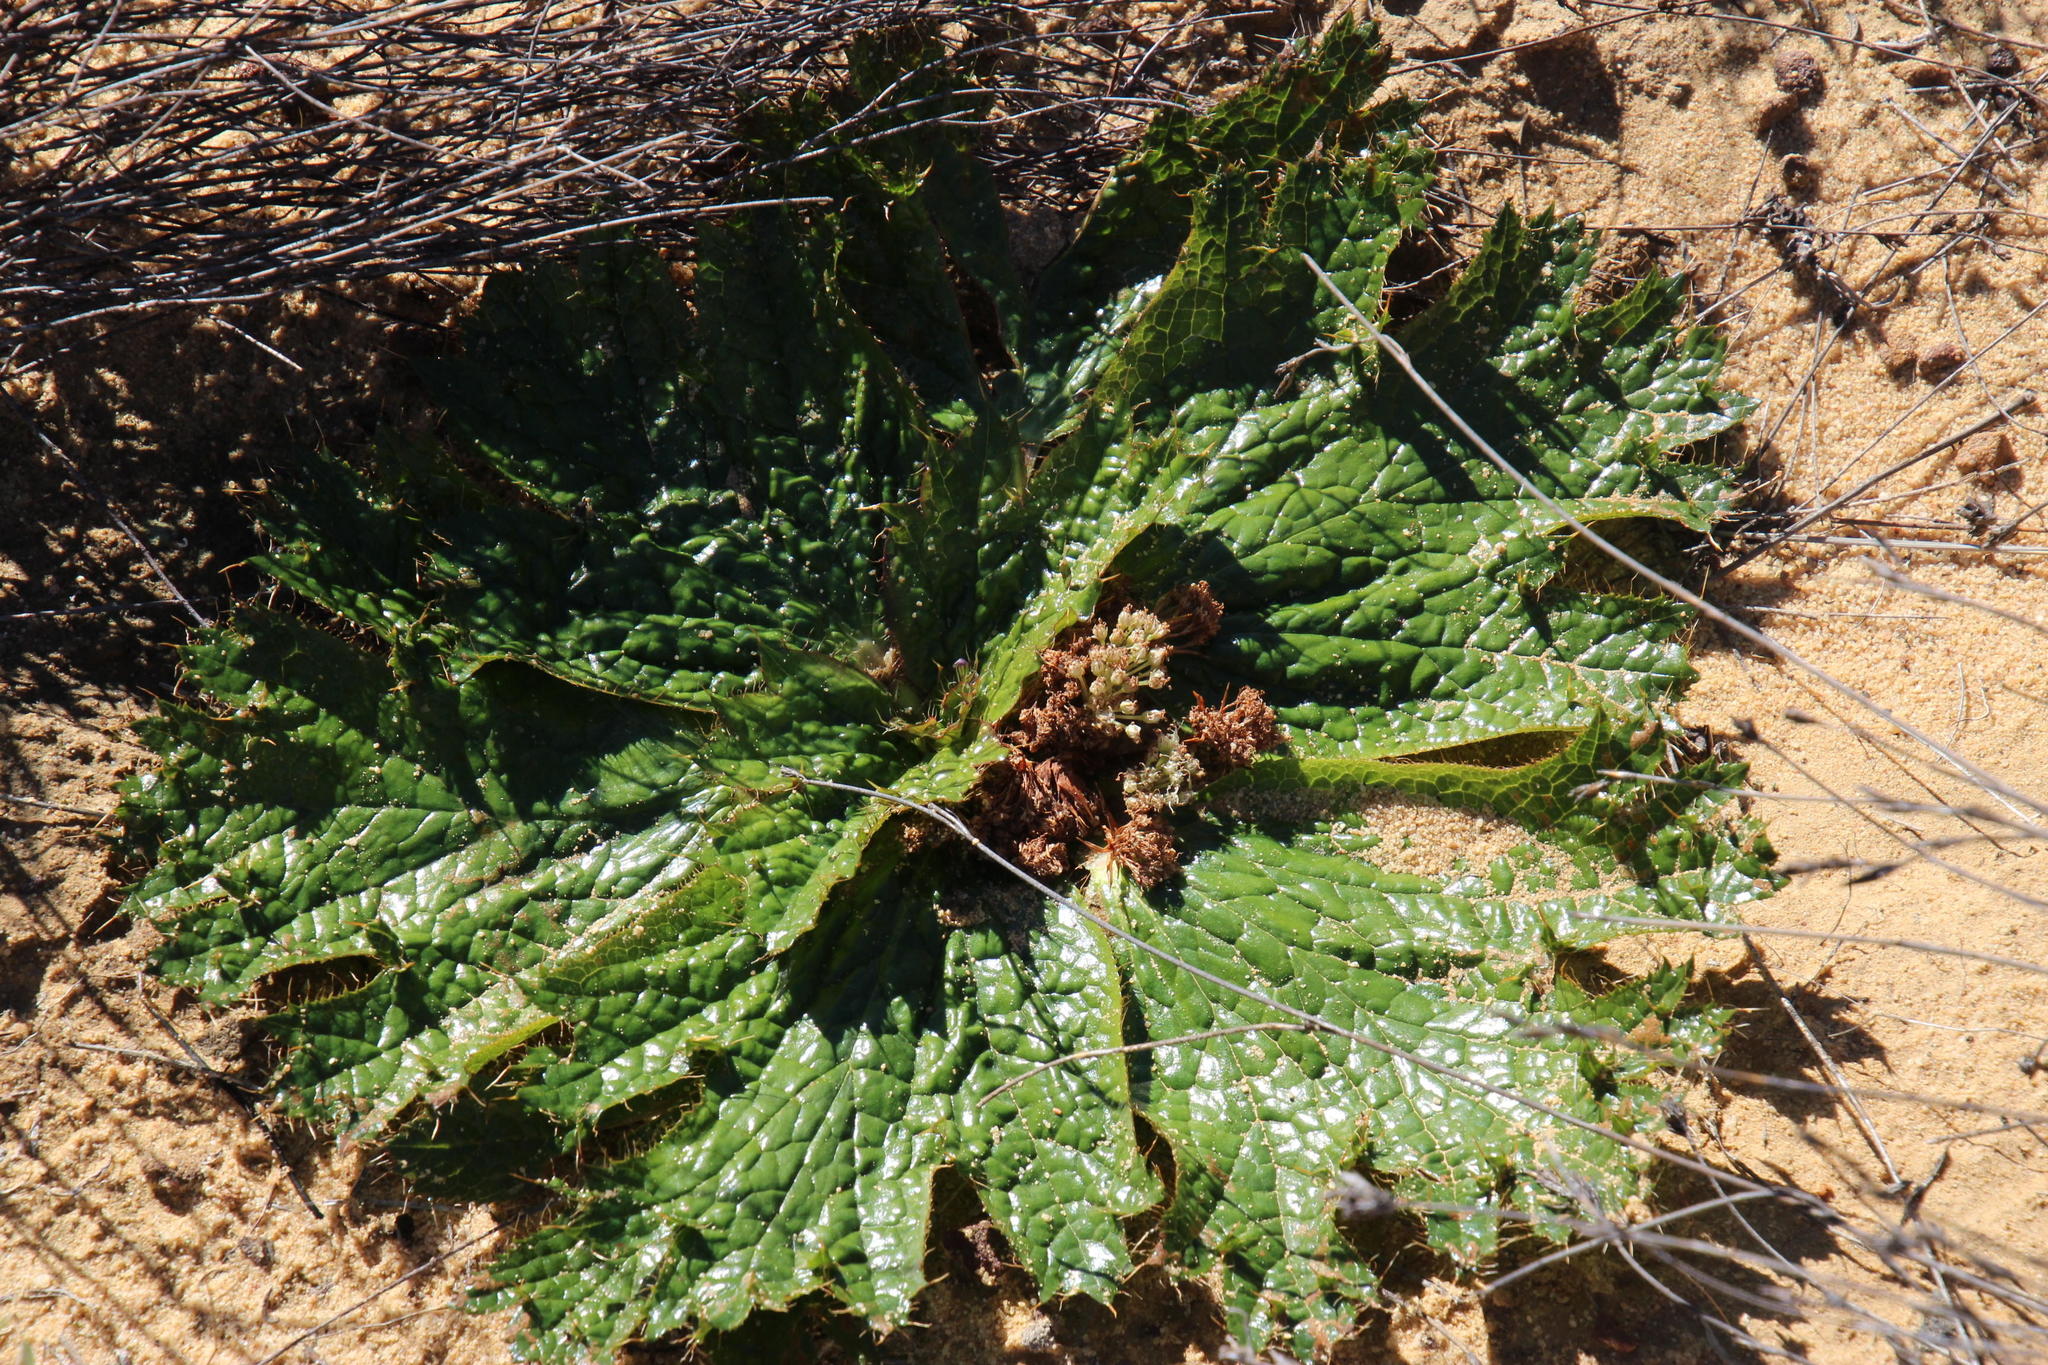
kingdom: Plantae
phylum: Tracheophyta
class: Magnoliopsida
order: Apiales
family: Apiaceae
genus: Arctopus
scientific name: Arctopus monacanthus
